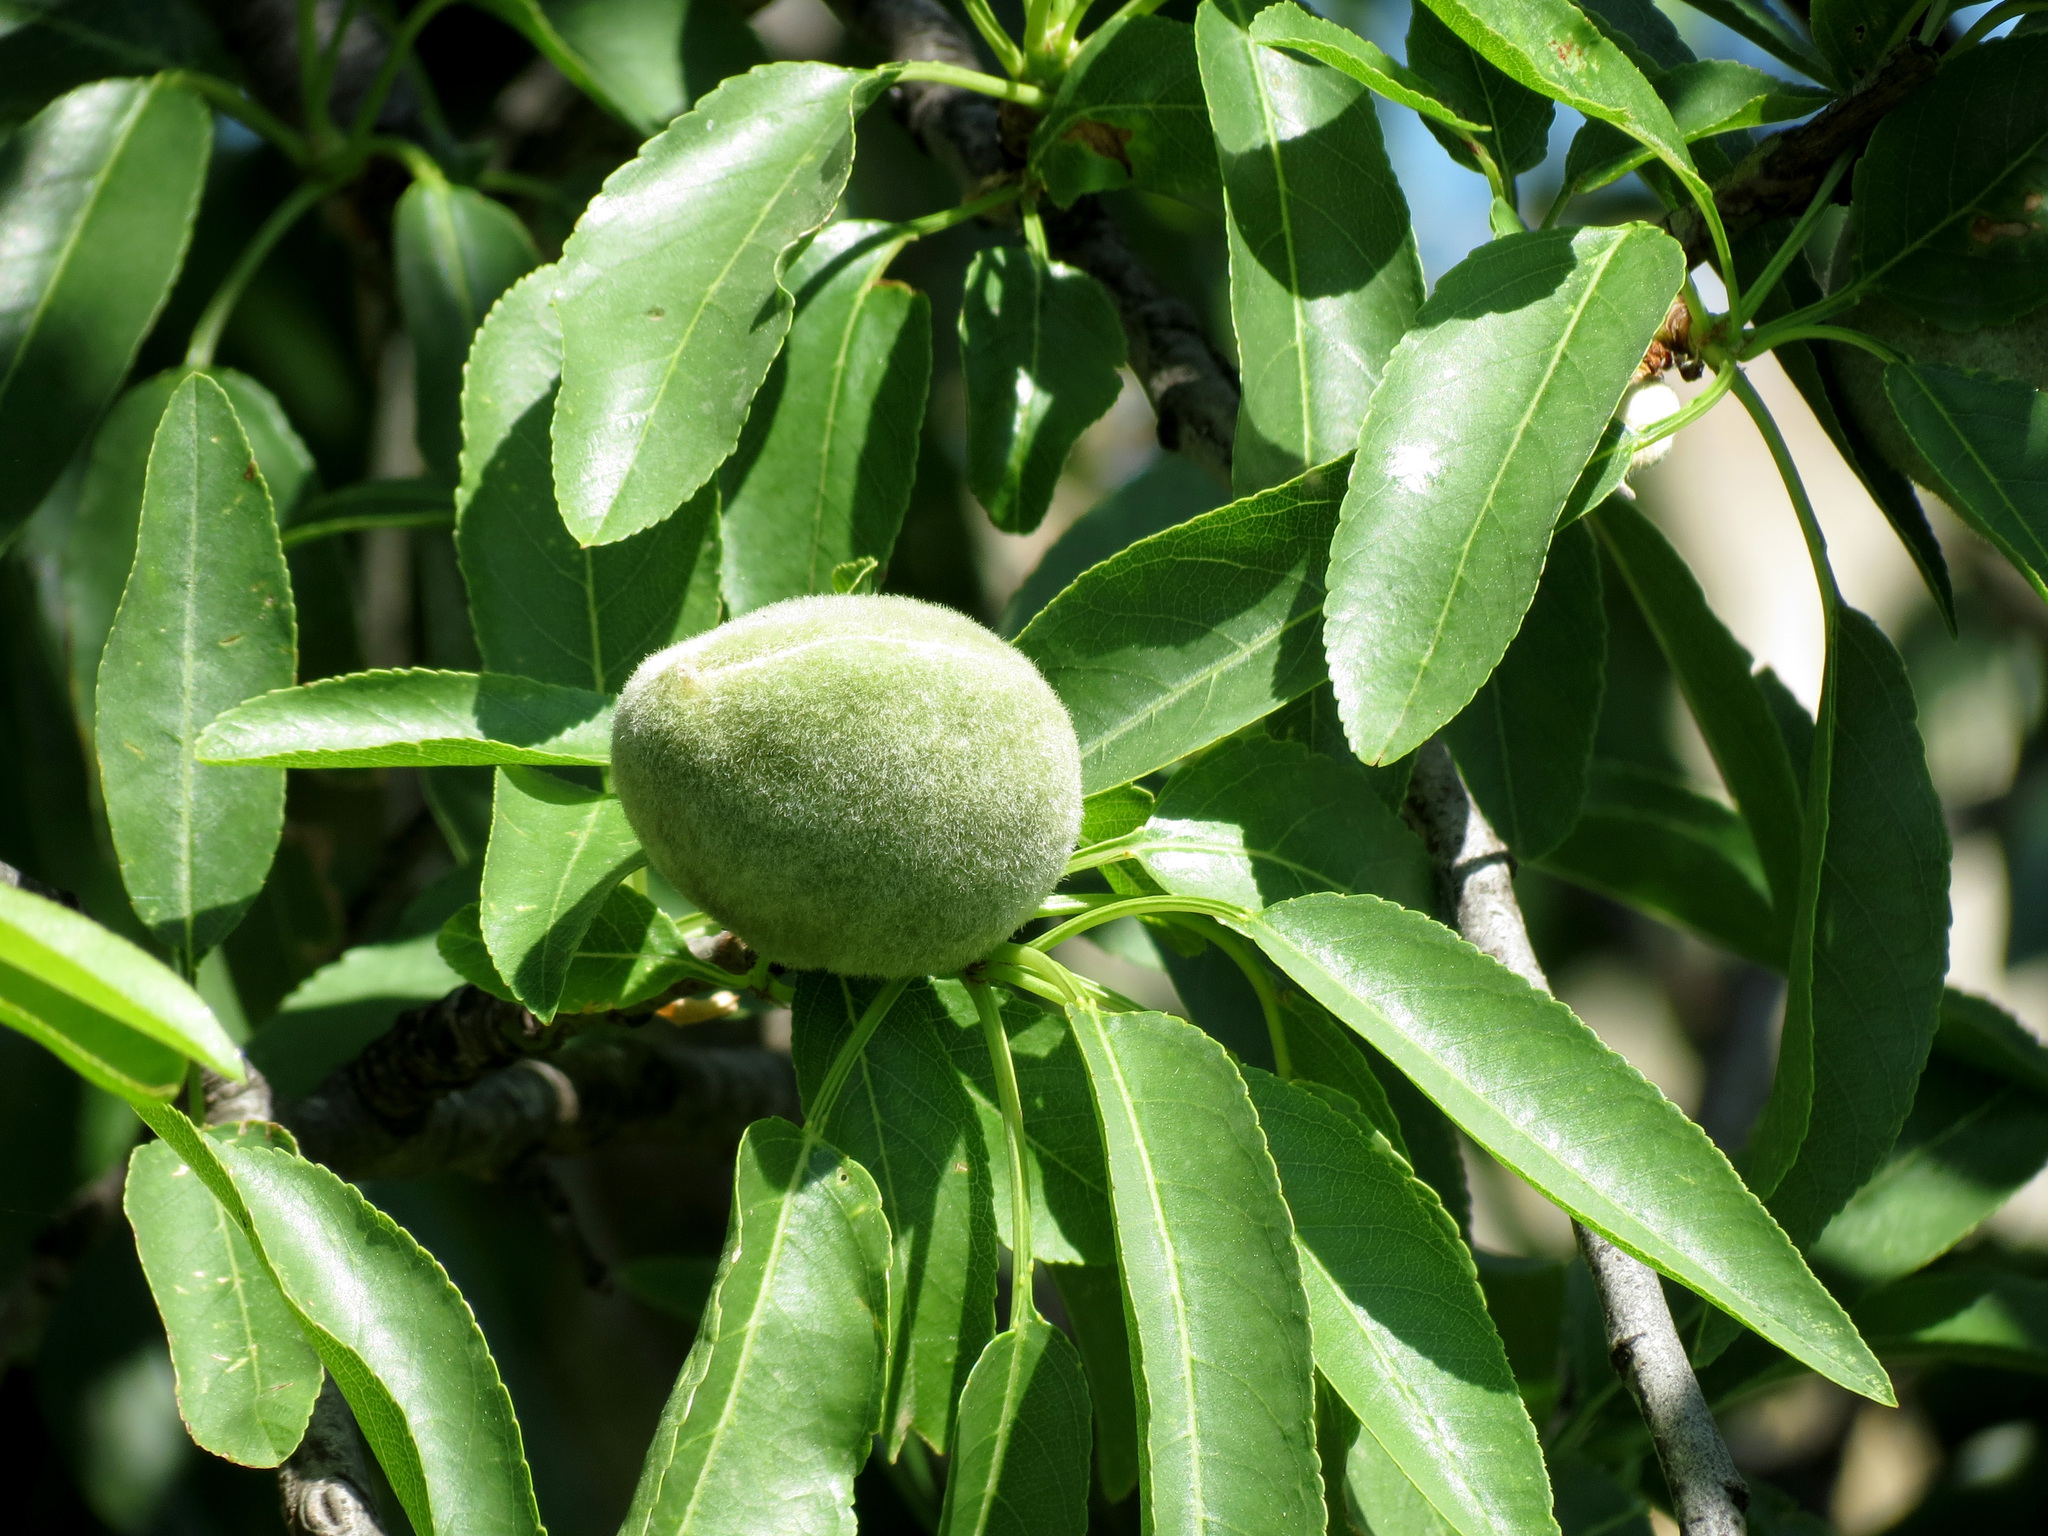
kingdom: Plantae
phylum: Tracheophyta
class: Magnoliopsida
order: Rosales
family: Rosaceae
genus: Prunus
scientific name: Prunus amygdalus
